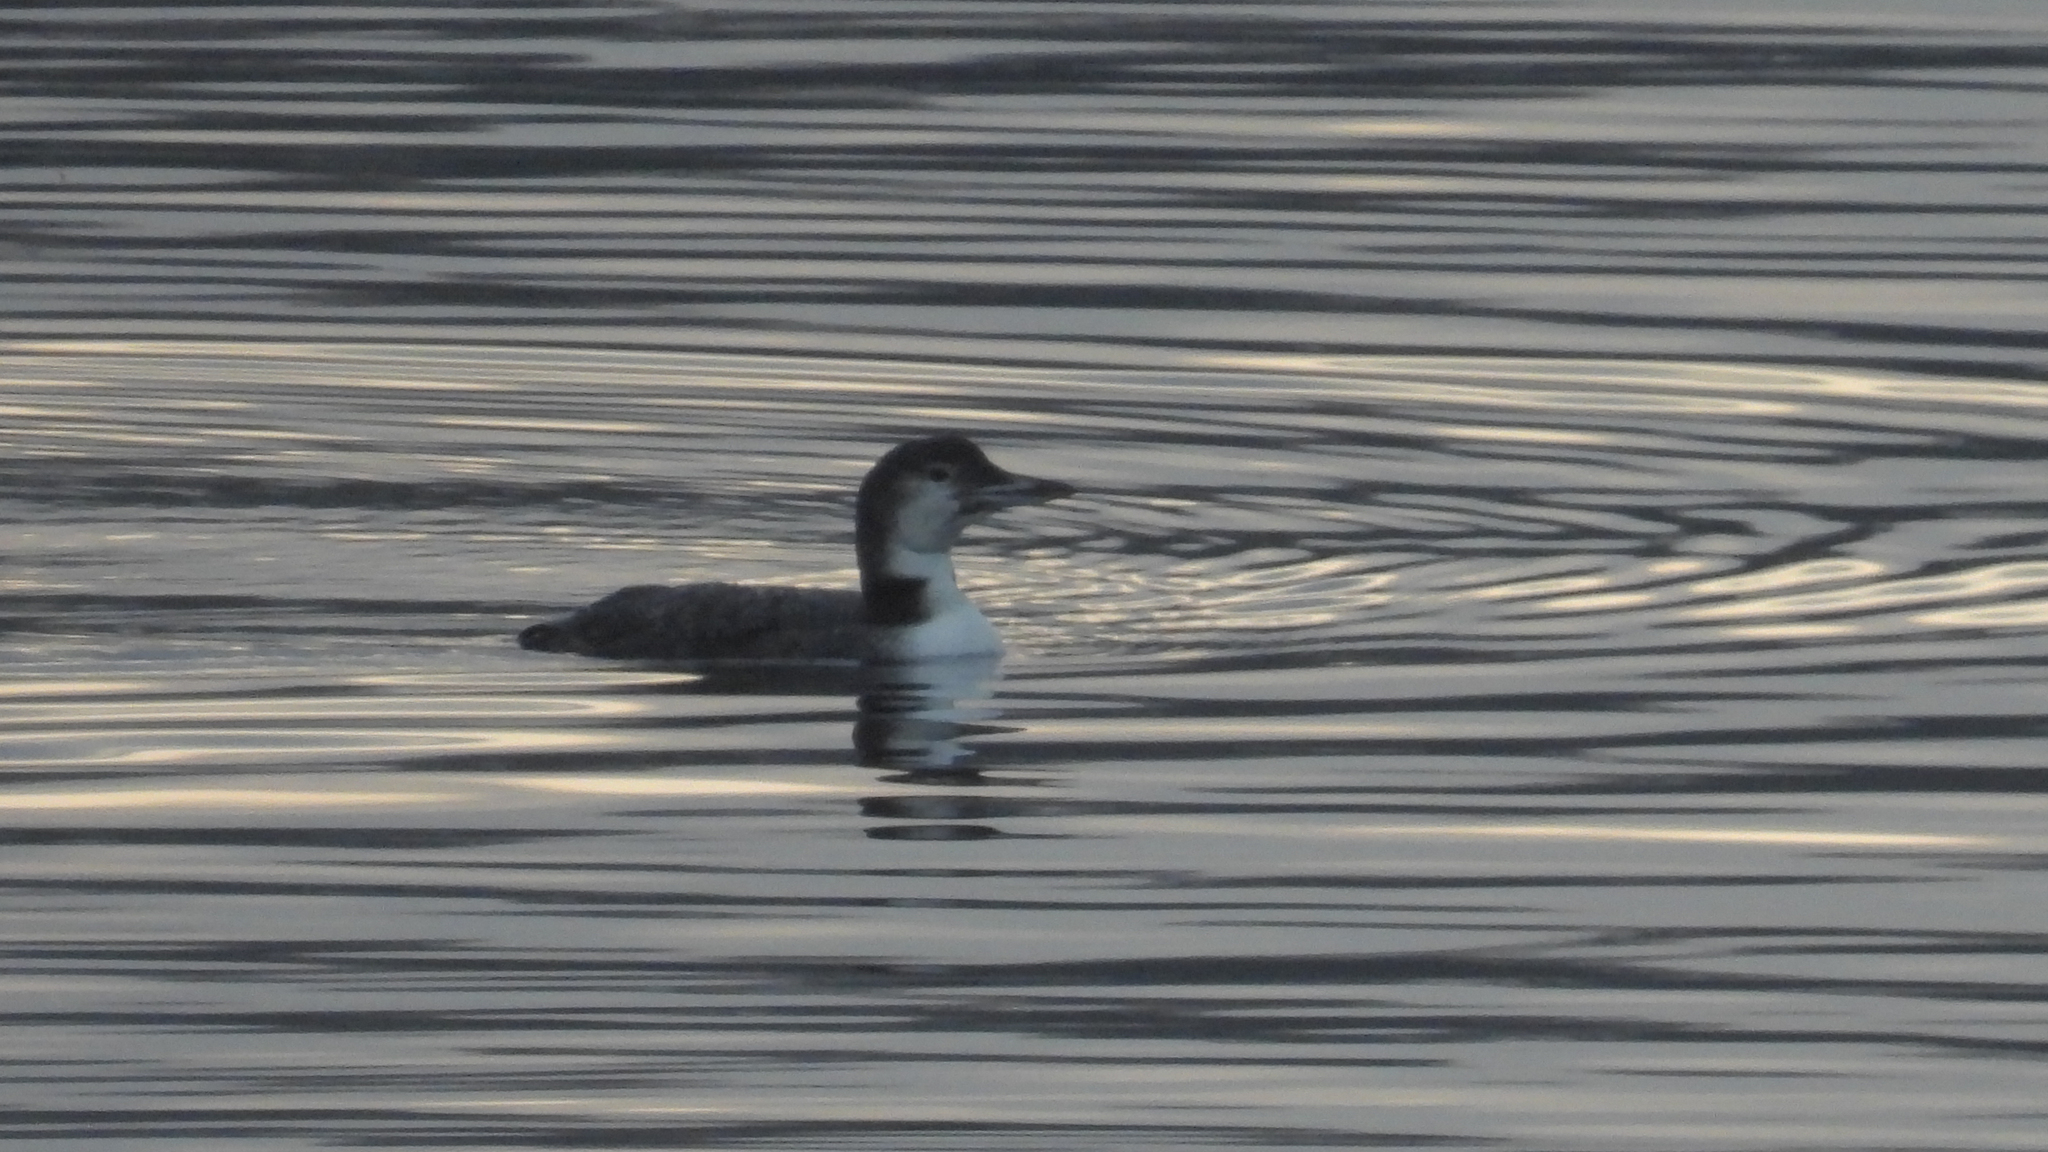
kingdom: Animalia
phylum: Chordata
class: Aves
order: Gaviiformes
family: Gaviidae
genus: Gavia
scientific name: Gavia immer
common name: Common loon
